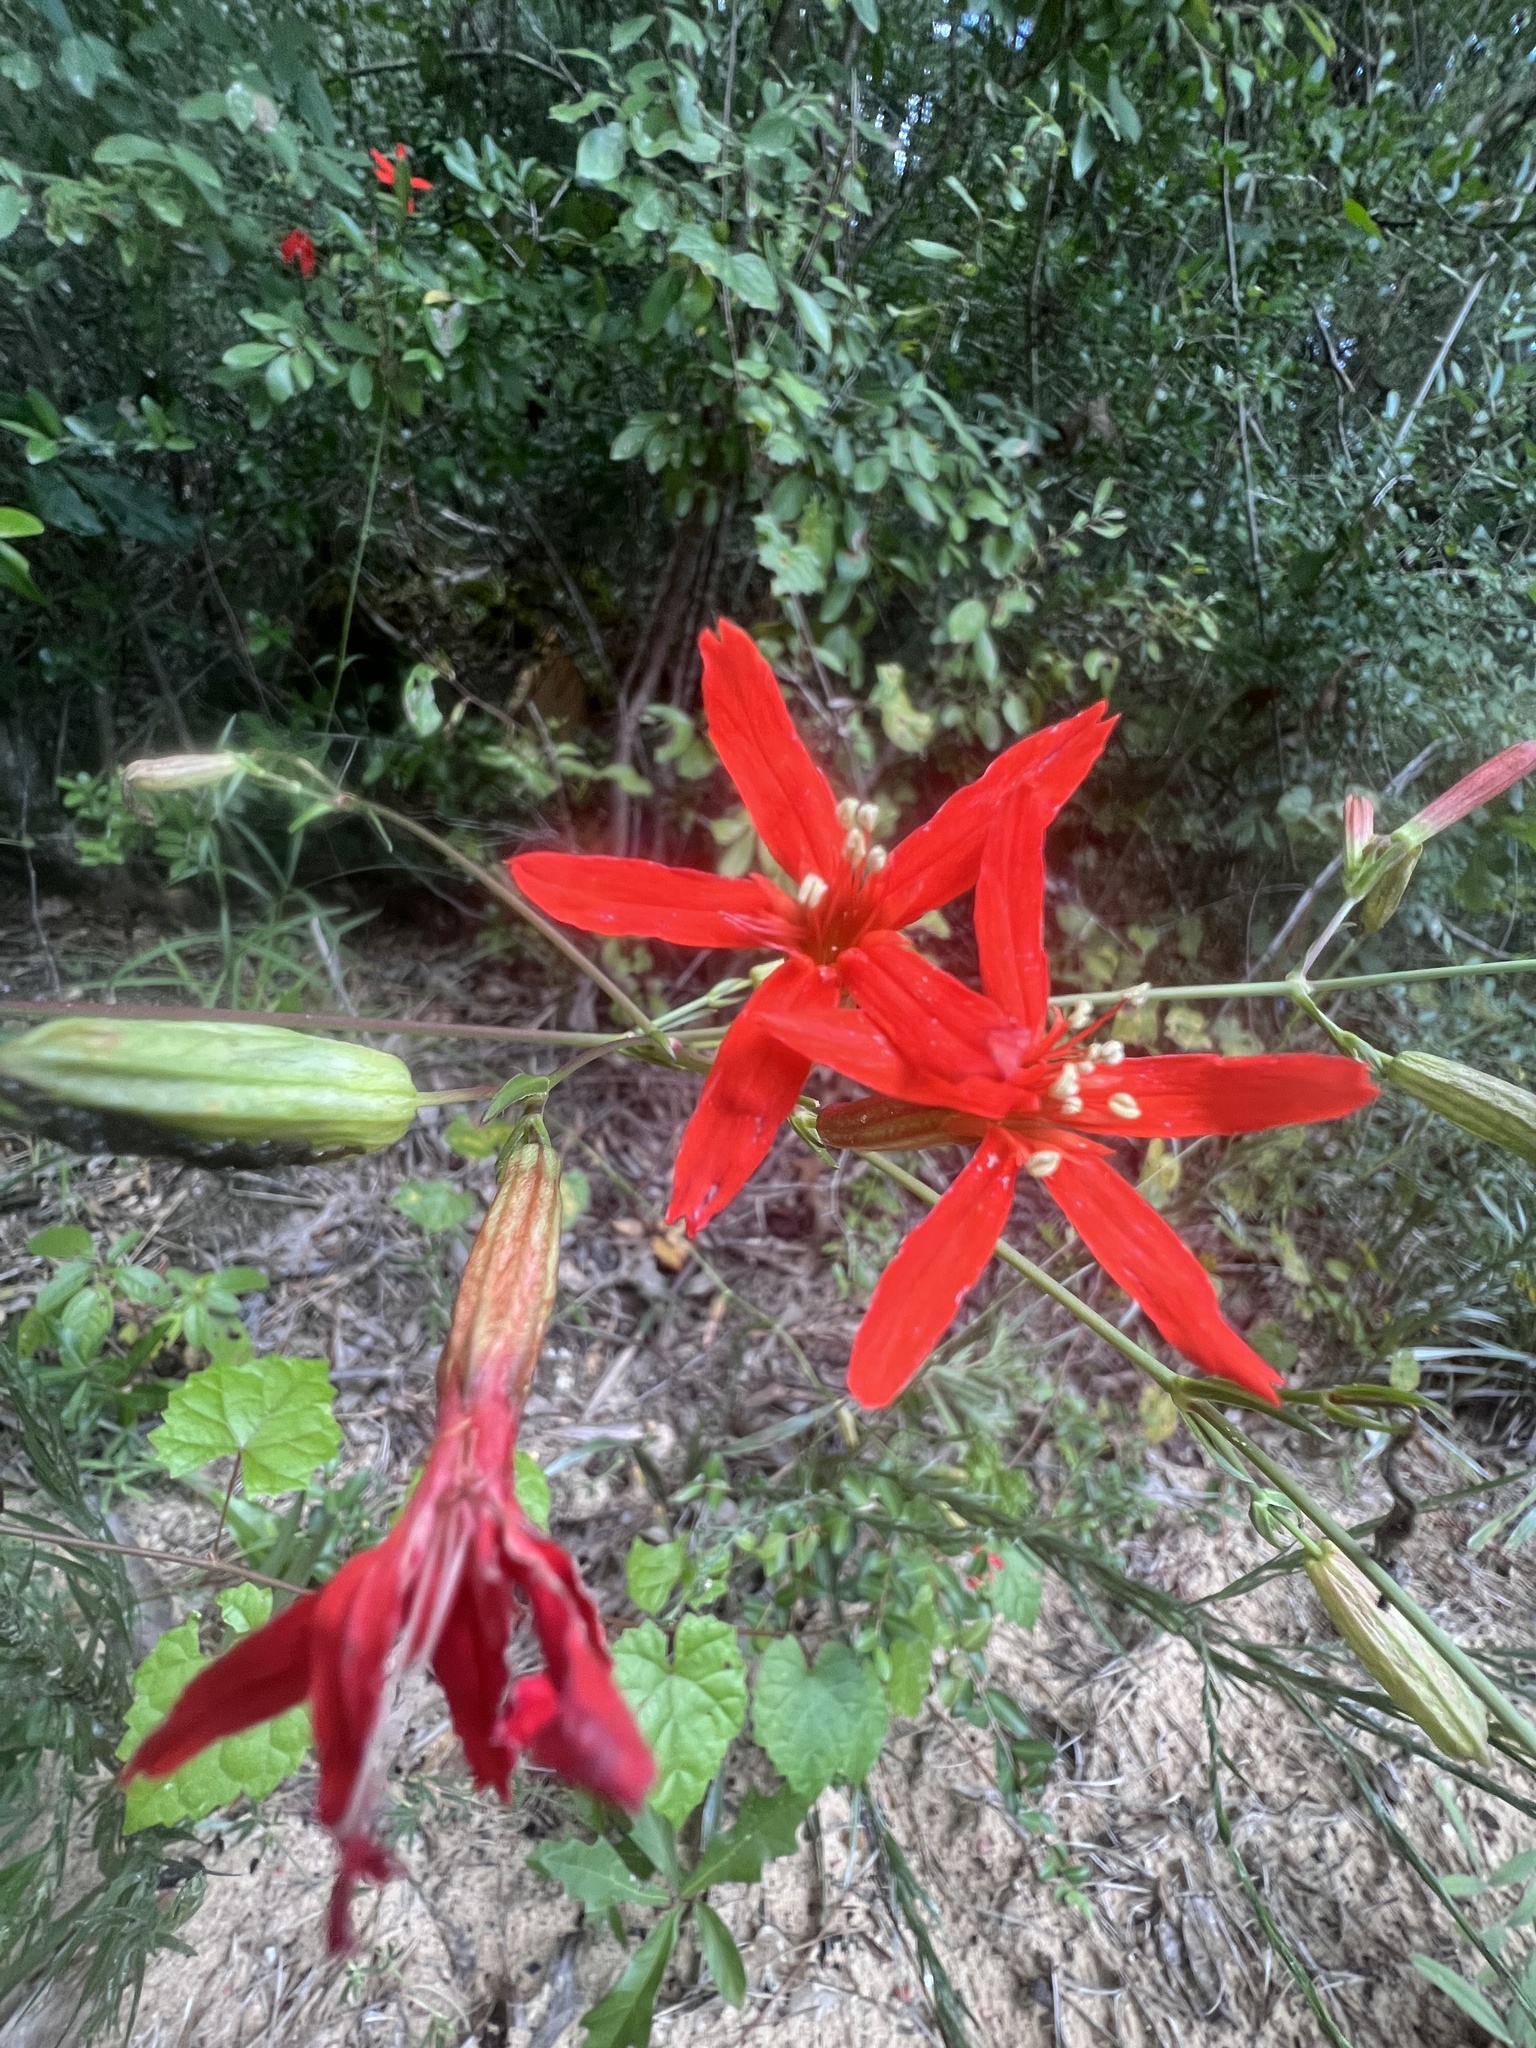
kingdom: Plantae
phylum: Tracheophyta
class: Magnoliopsida
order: Caryophyllales
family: Caryophyllaceae
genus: Silene
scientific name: Silene subciliata
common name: Prairie fire-pink
